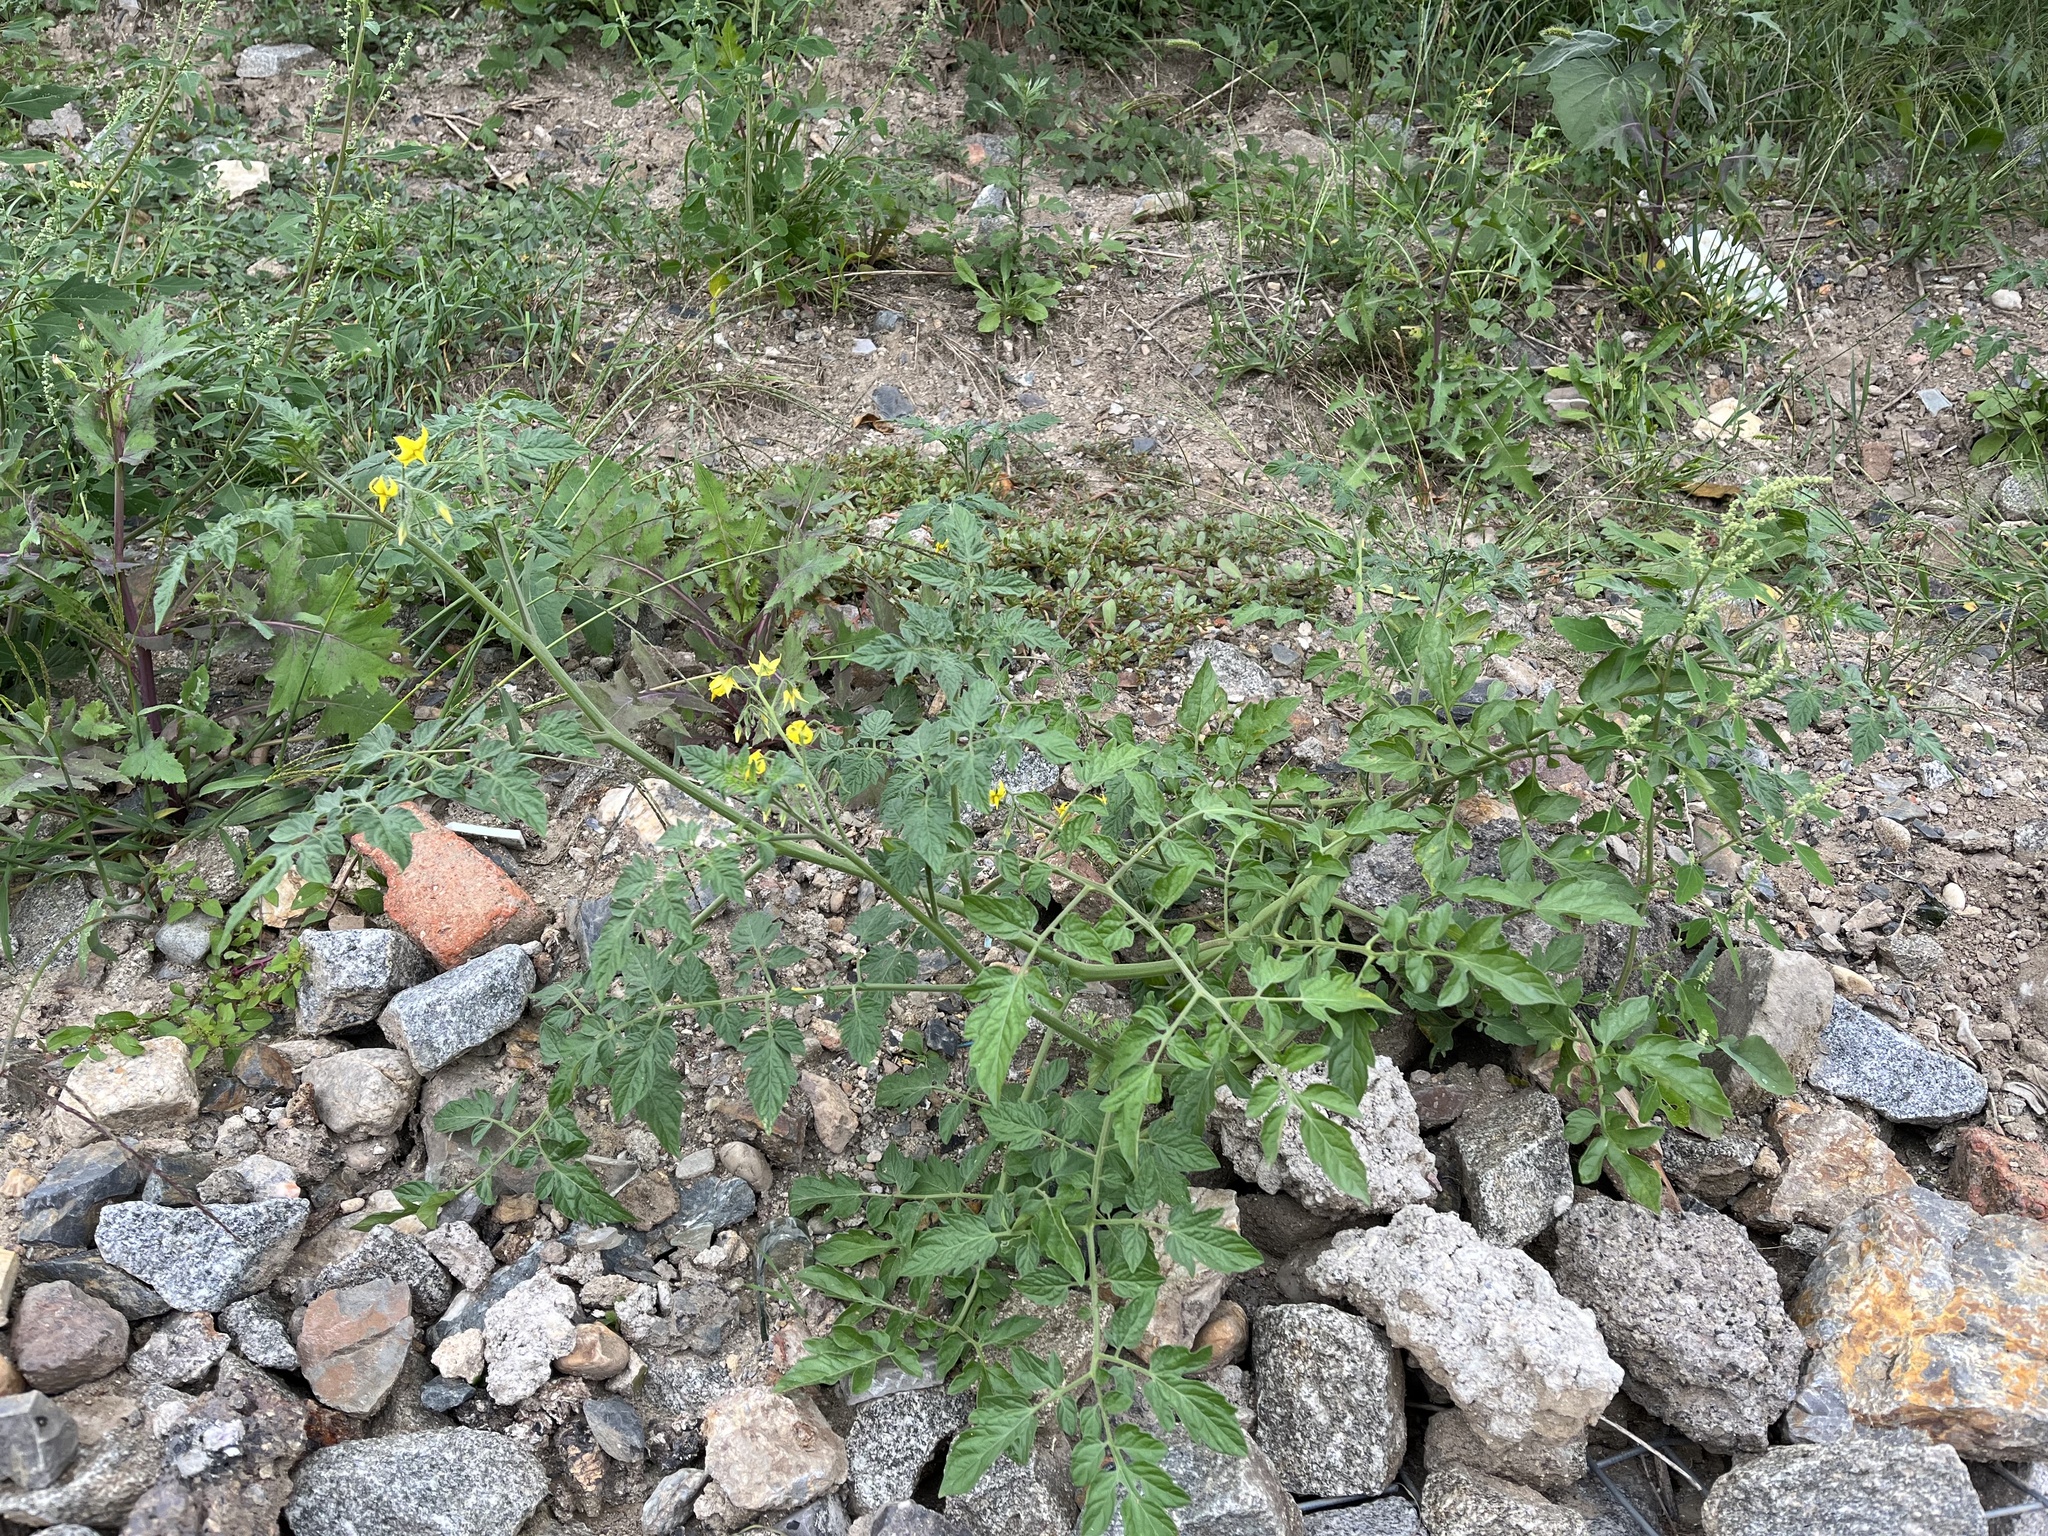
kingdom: Plantae
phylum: Tracheophyta
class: Magnoliopsida
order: Solanales
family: Solanaceae
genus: Solanum
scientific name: Solanum lycopersicum
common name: Garden tomato
